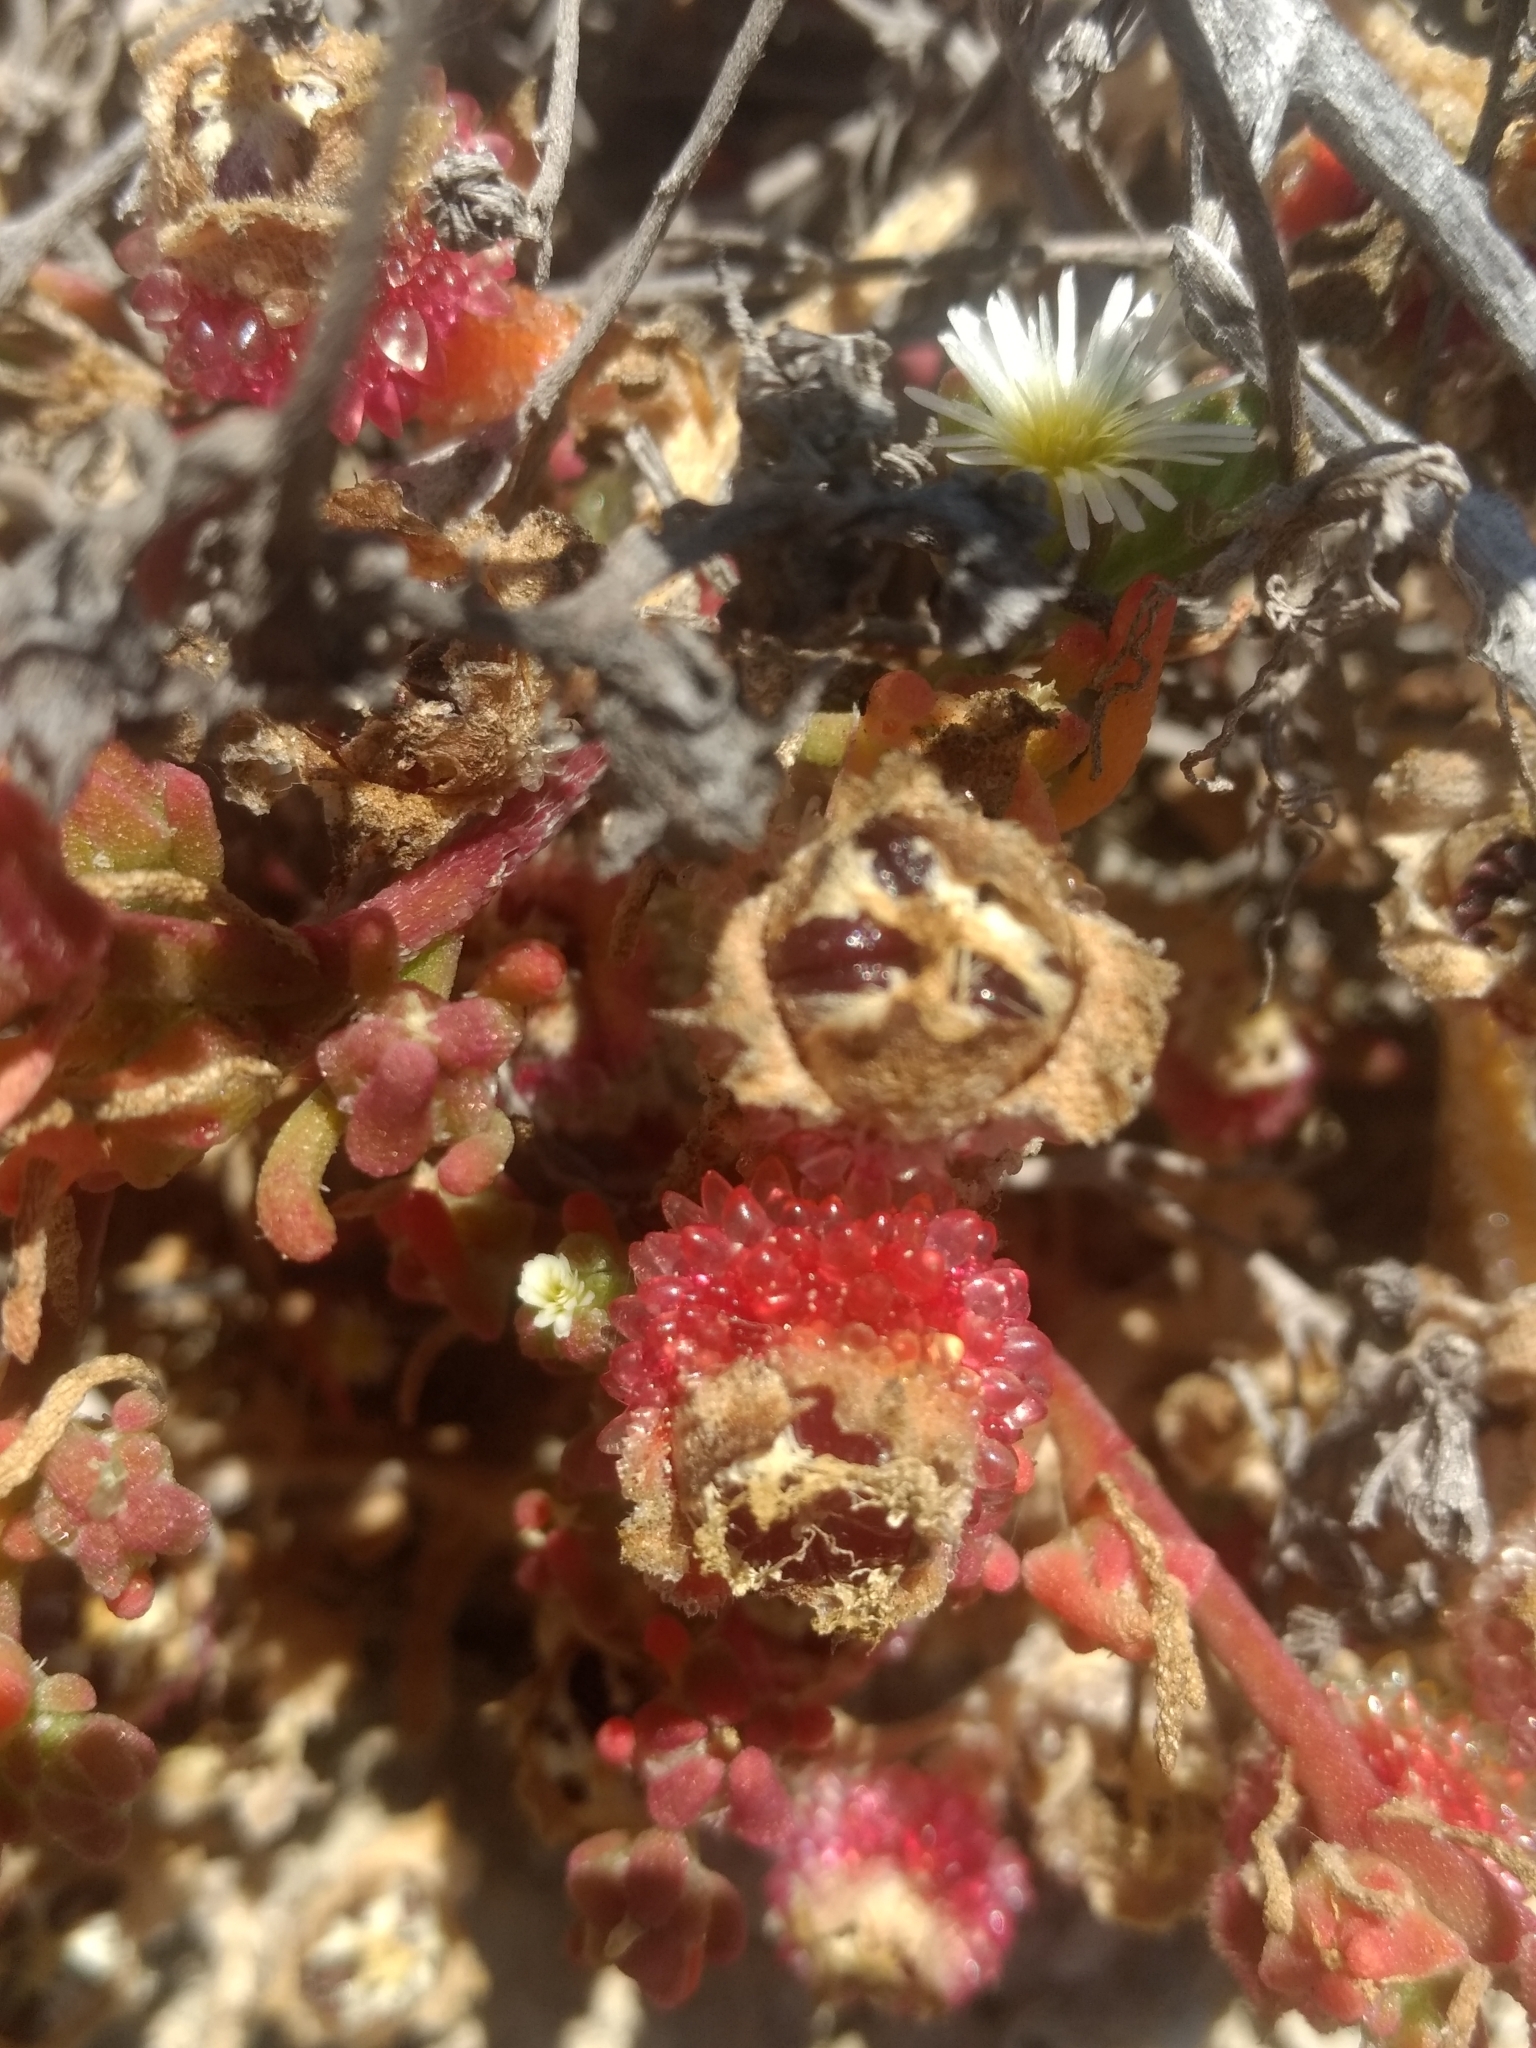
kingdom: Plantae
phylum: Tracheophyta
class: Magnoliopsida
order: Caryophyllales
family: Aizoaceae
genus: Mesembryanthemum
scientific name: Mesembryanthemum crystallinum
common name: Common iceplant
